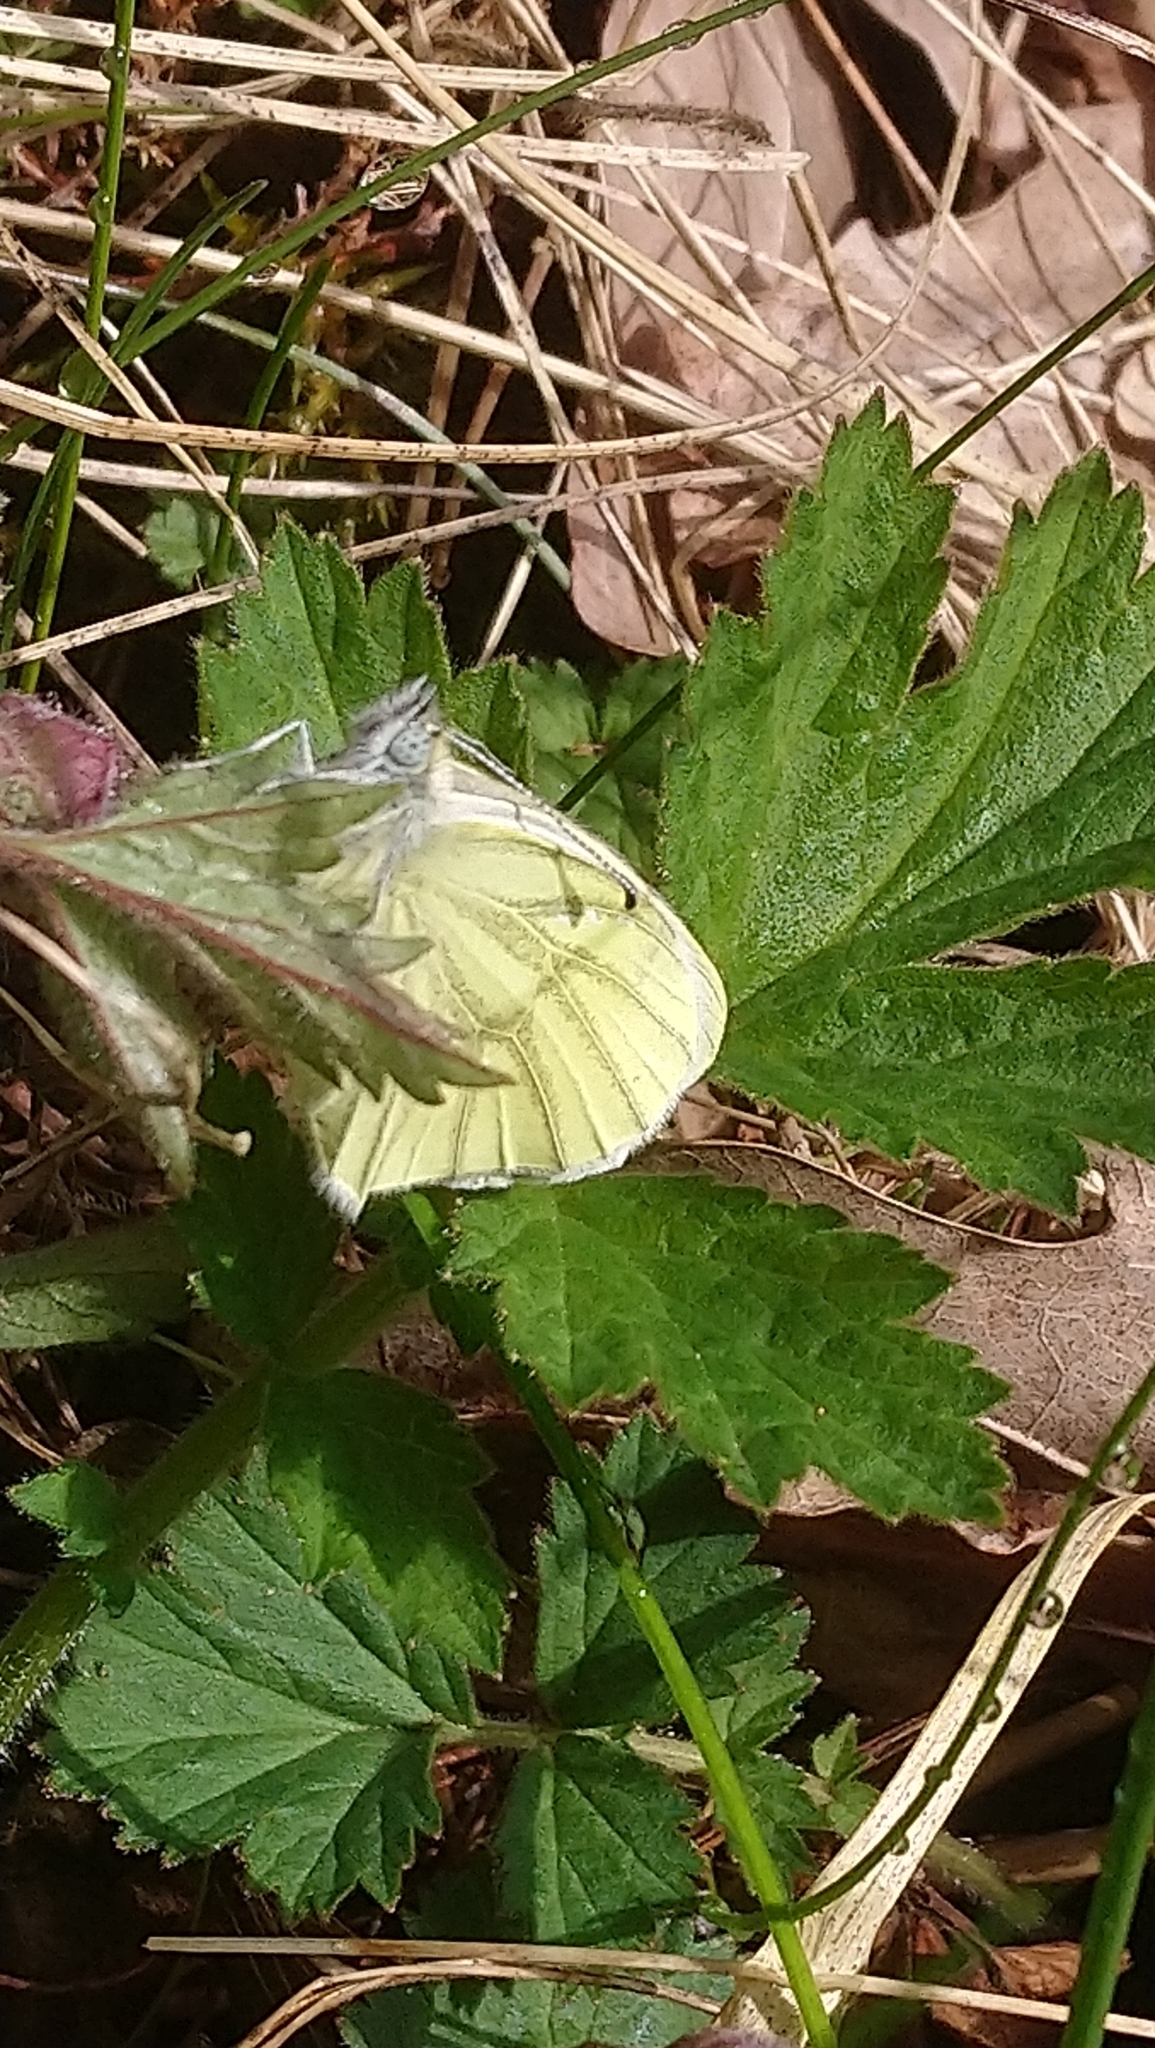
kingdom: Animalia
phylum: Arthropoda
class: Insecta
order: Lepidoptera
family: Pieridae
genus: Pieris
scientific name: Pieris napi
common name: Green-veined white
